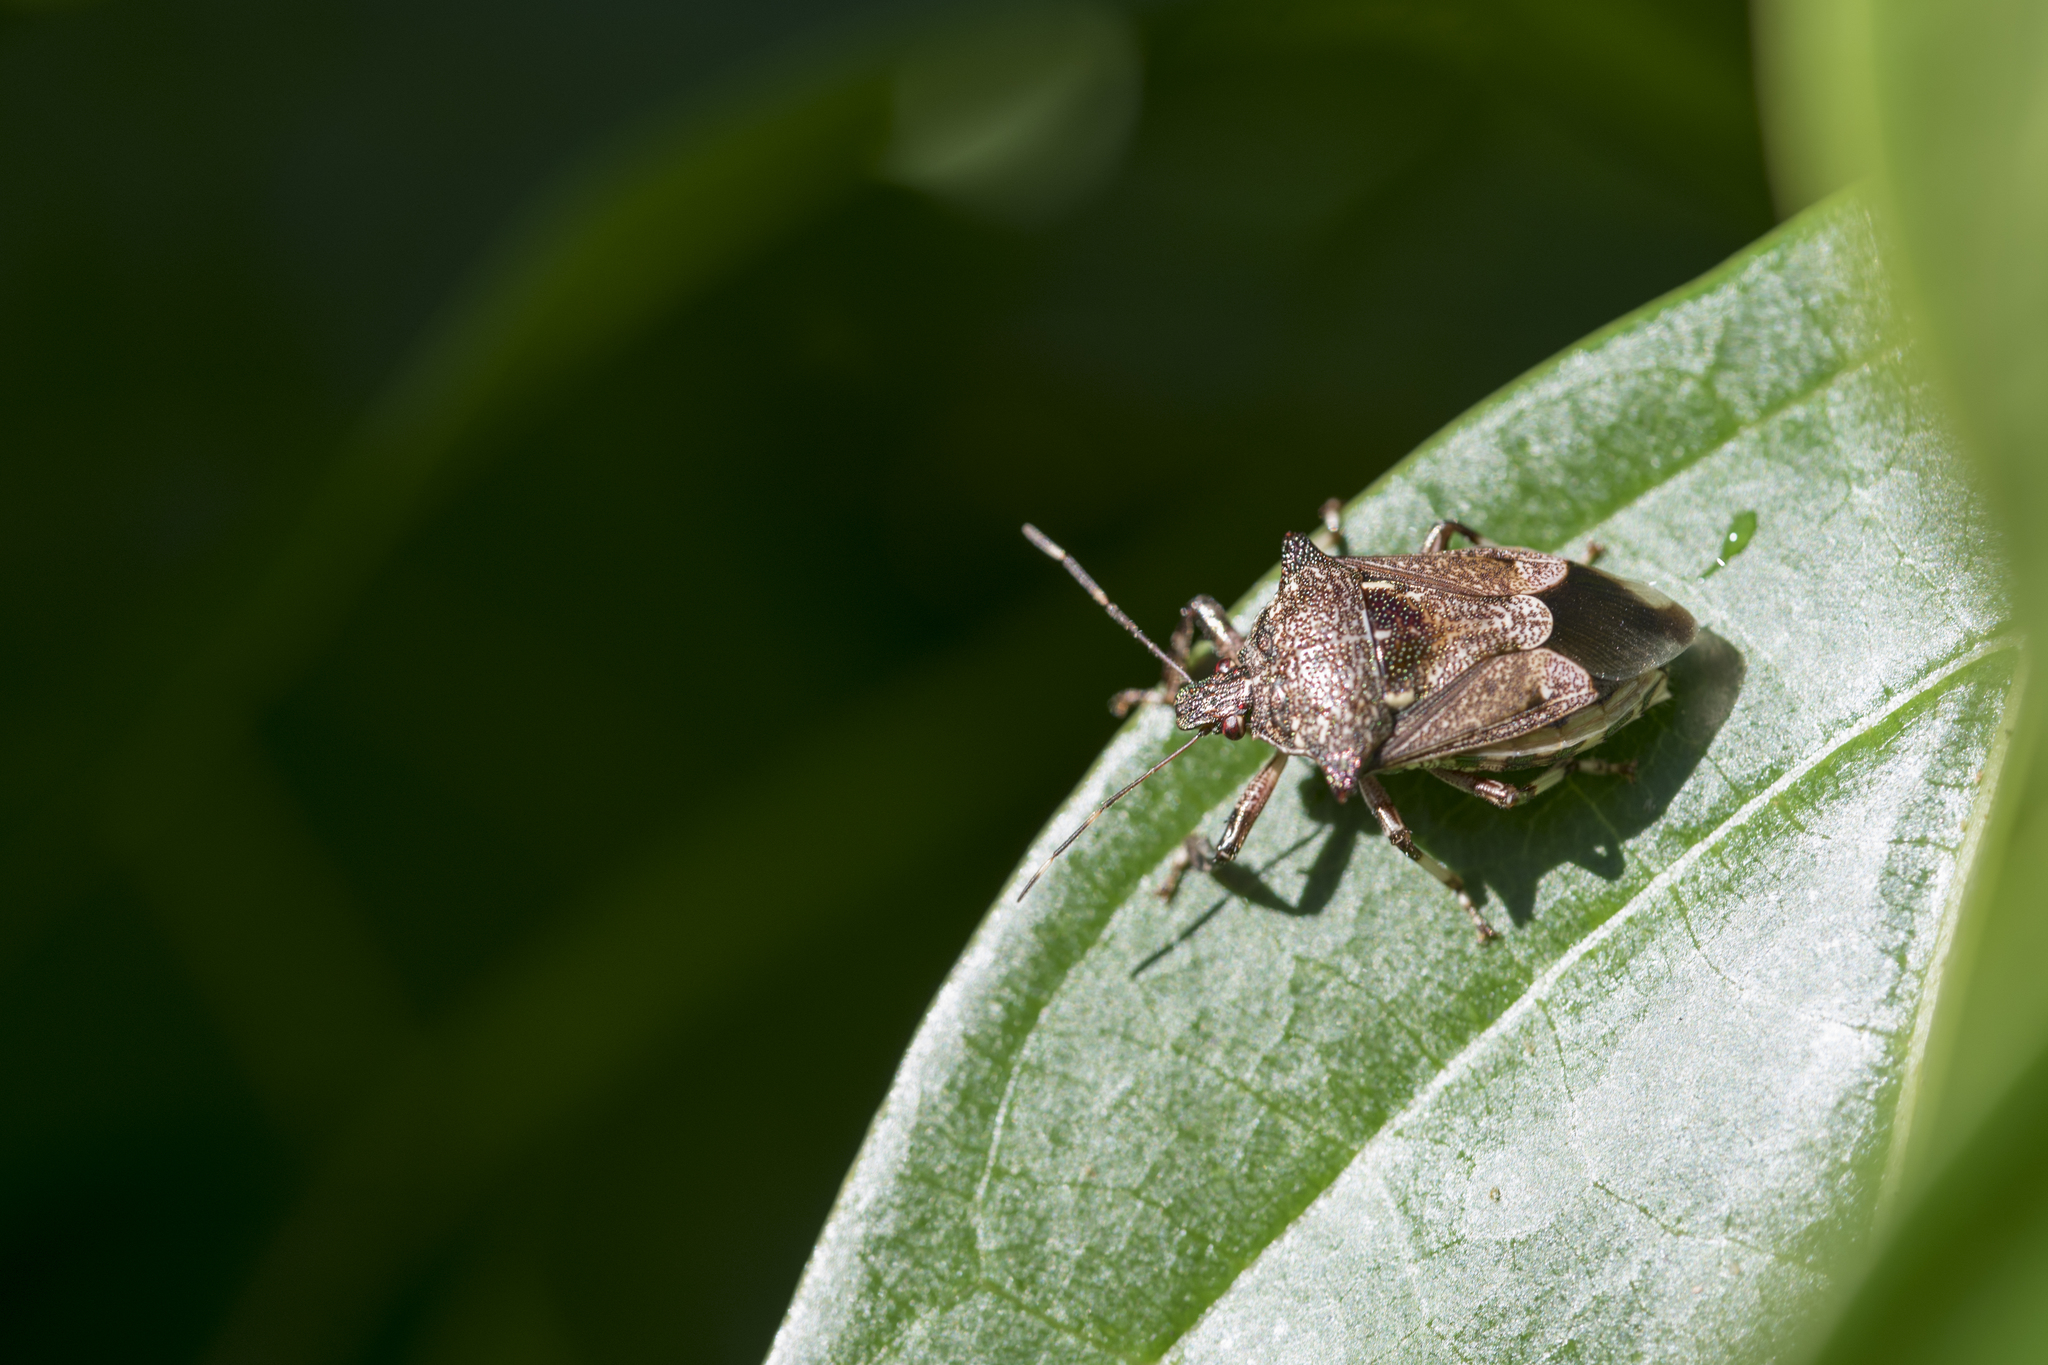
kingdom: Animalia
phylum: Arthropoda
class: Insecta
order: Hemiptera
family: Pentatomidae
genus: Eocanthecona
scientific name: Eocanthecona concinna
